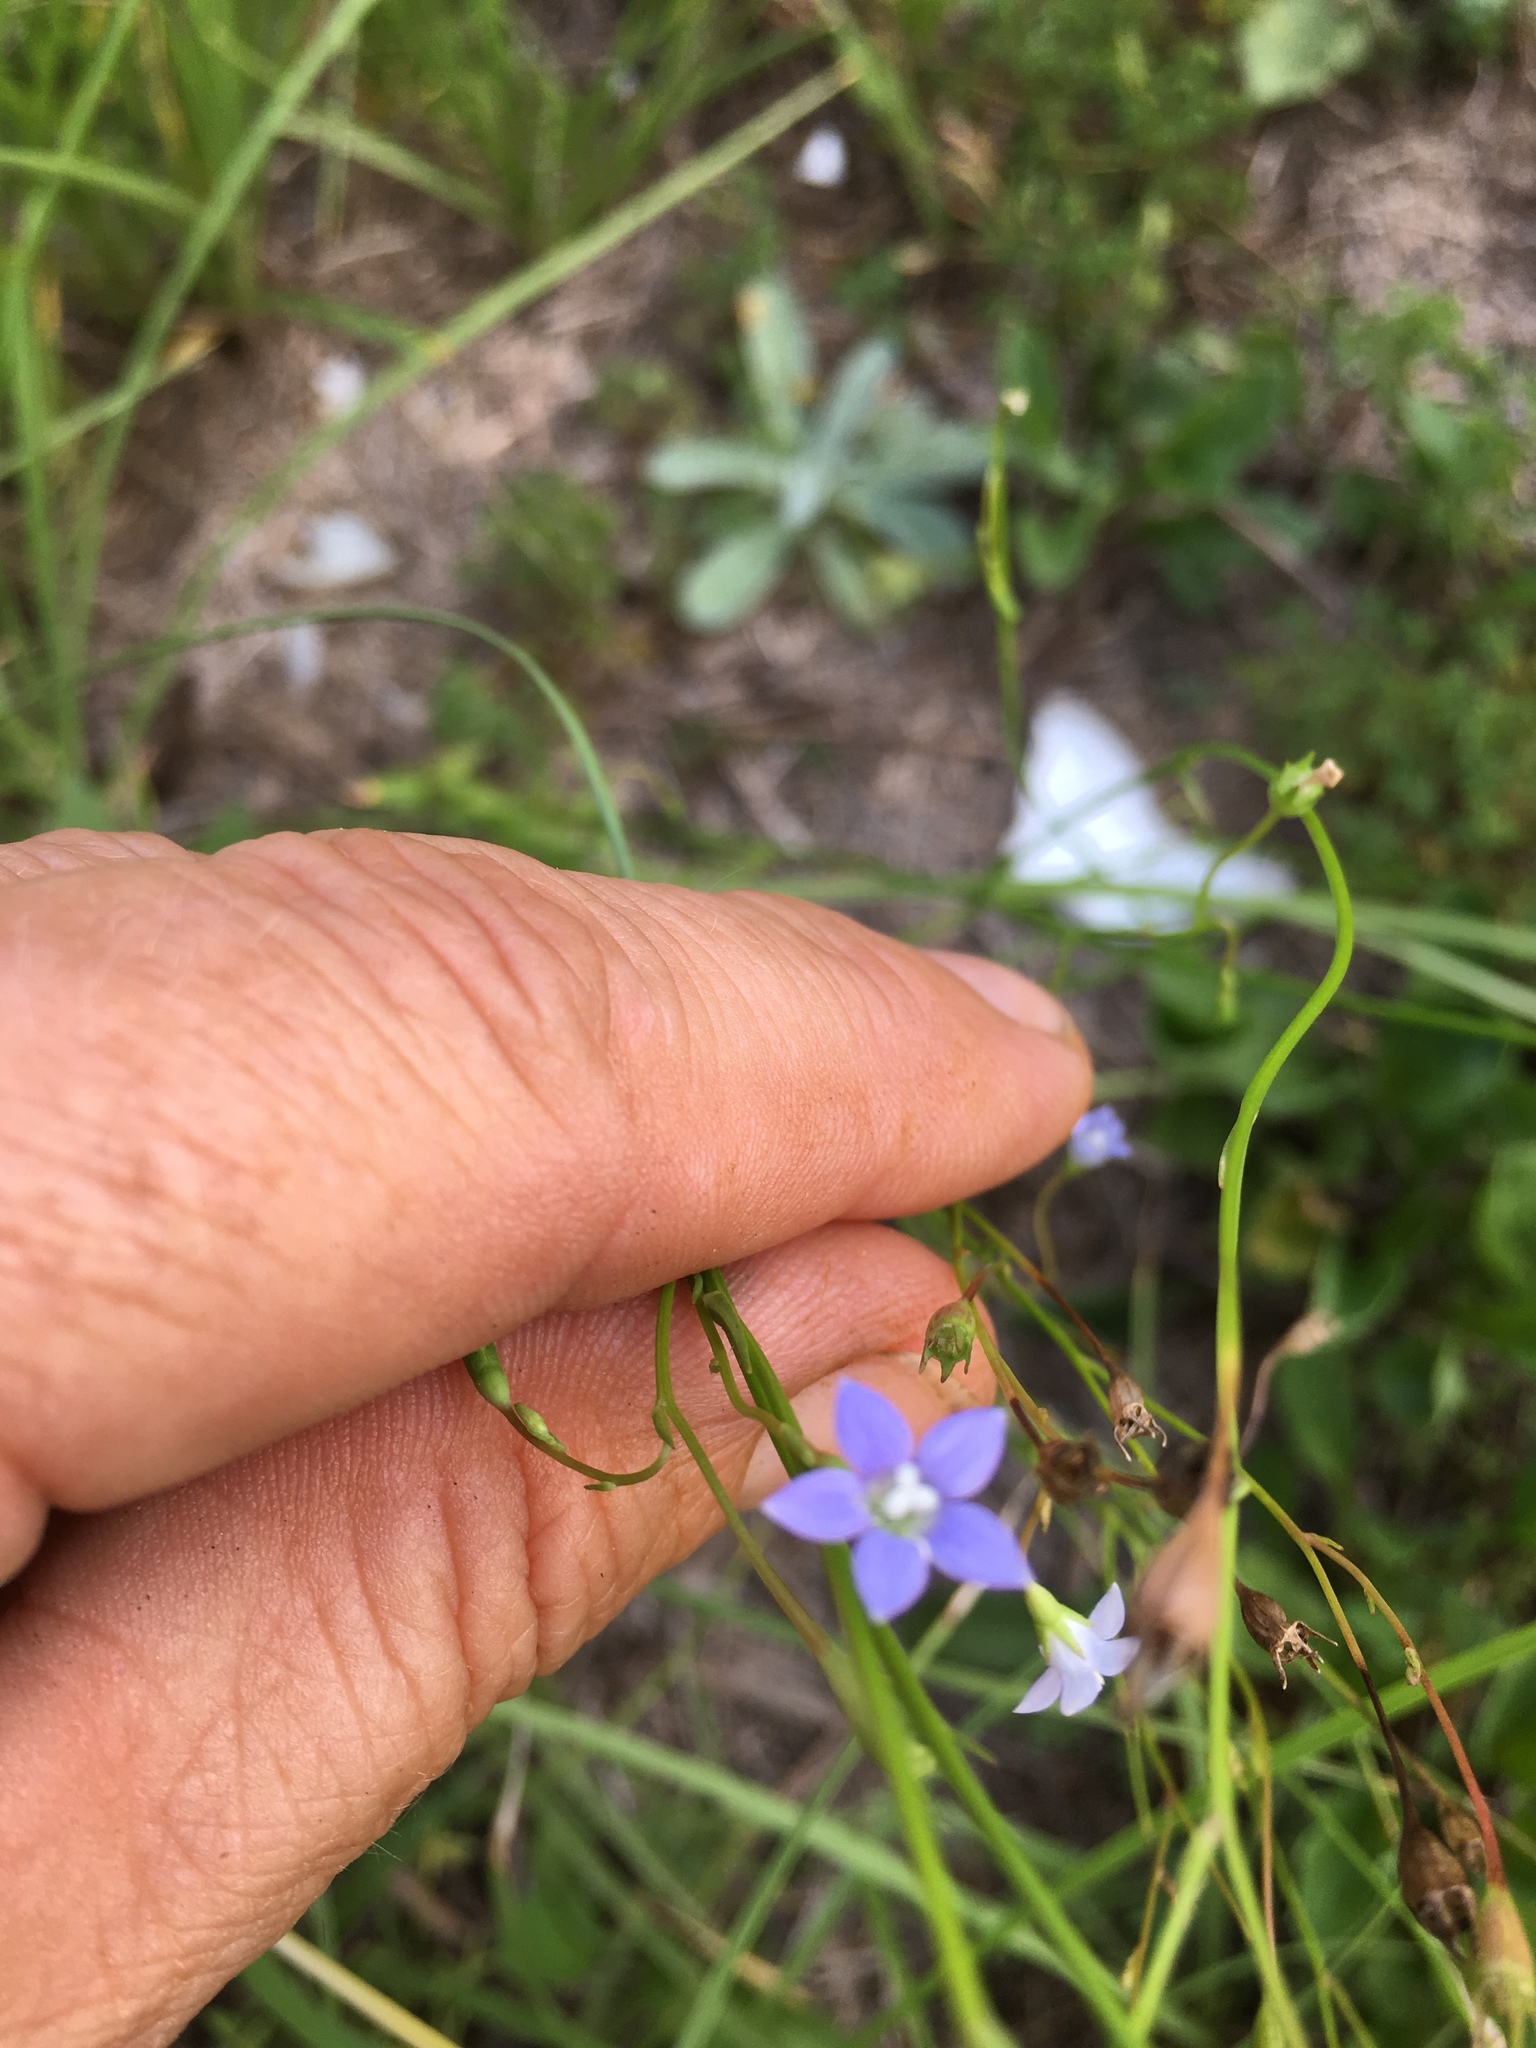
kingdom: Plantae
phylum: Tracheophyta
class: Magnoliopsida
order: Asterales
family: Campanulaceae
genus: Wahlenbergia
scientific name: Wahlenbergia marginata
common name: Southern rockbell
